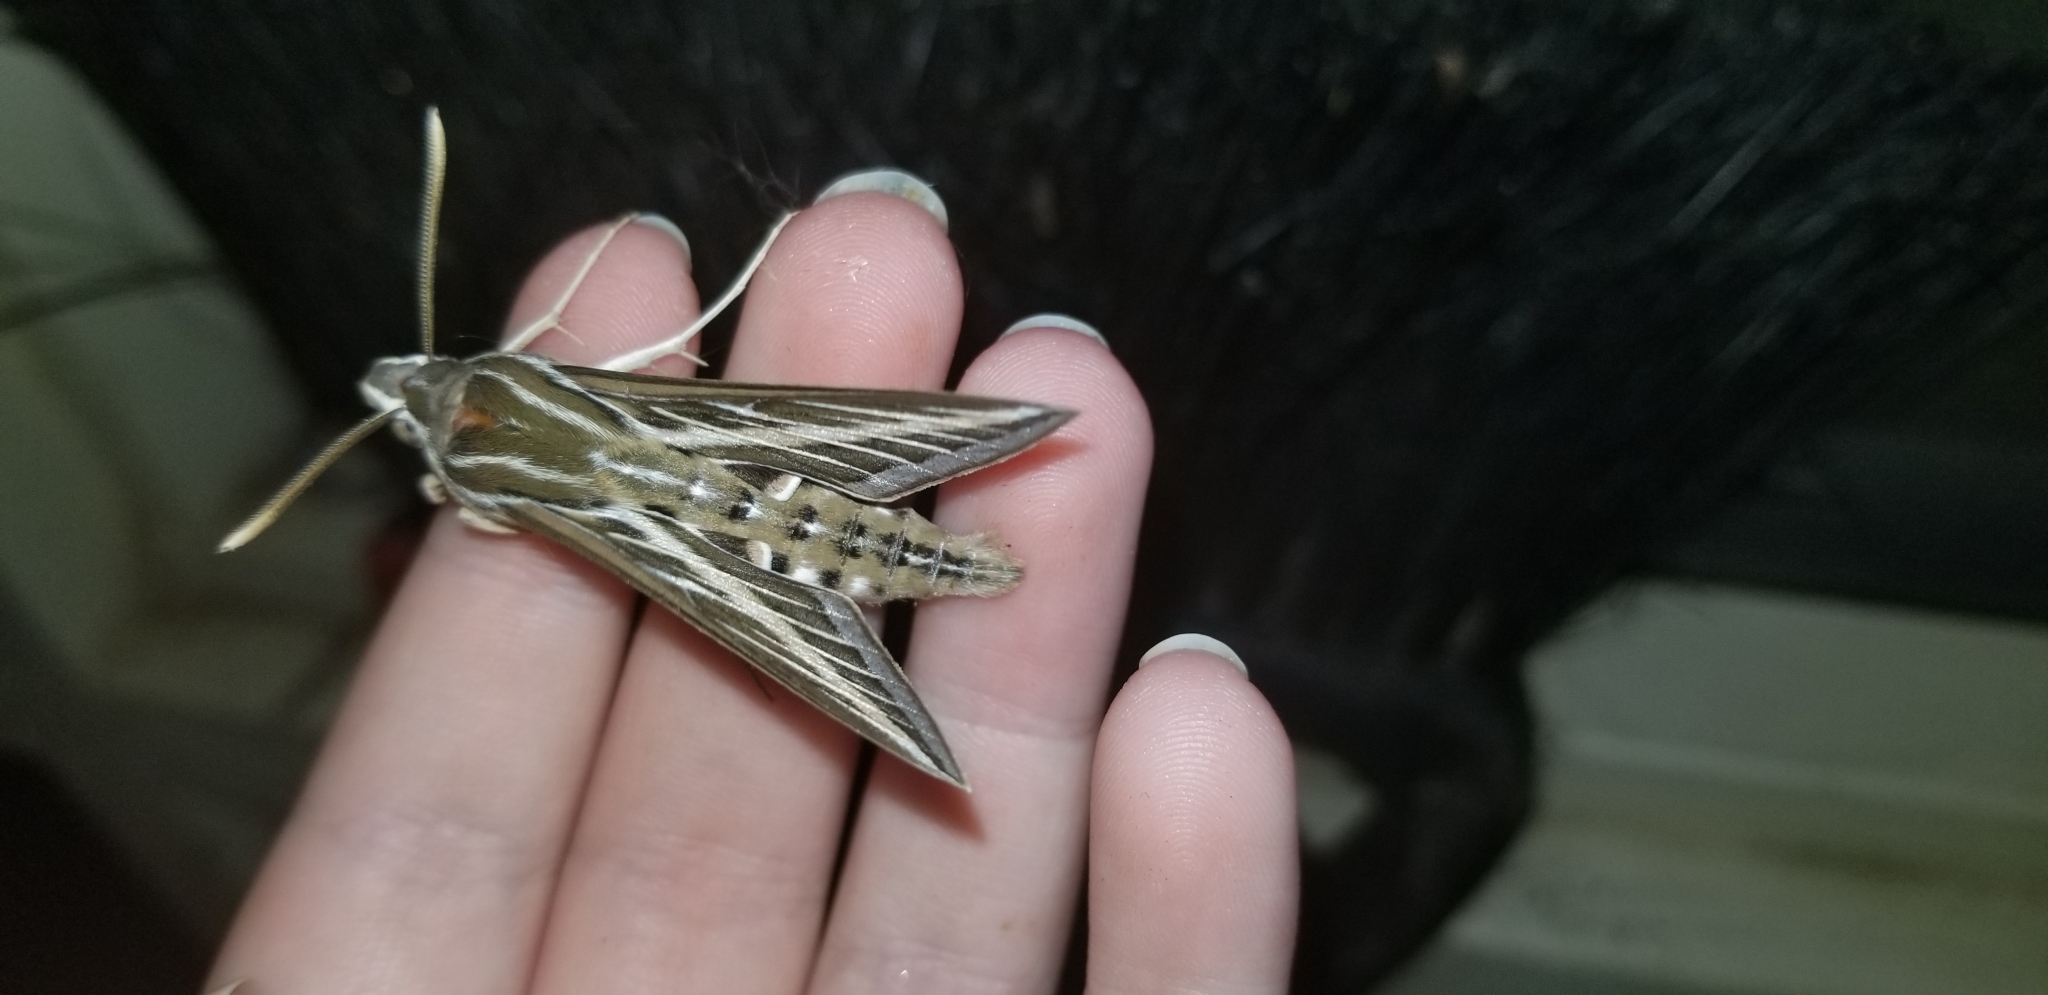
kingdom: Animalia
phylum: Arthropoda
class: Insecta
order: Lepidoptera
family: Sphingidae
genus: Hyles
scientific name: Hyles lineata
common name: White-lined sphinx
